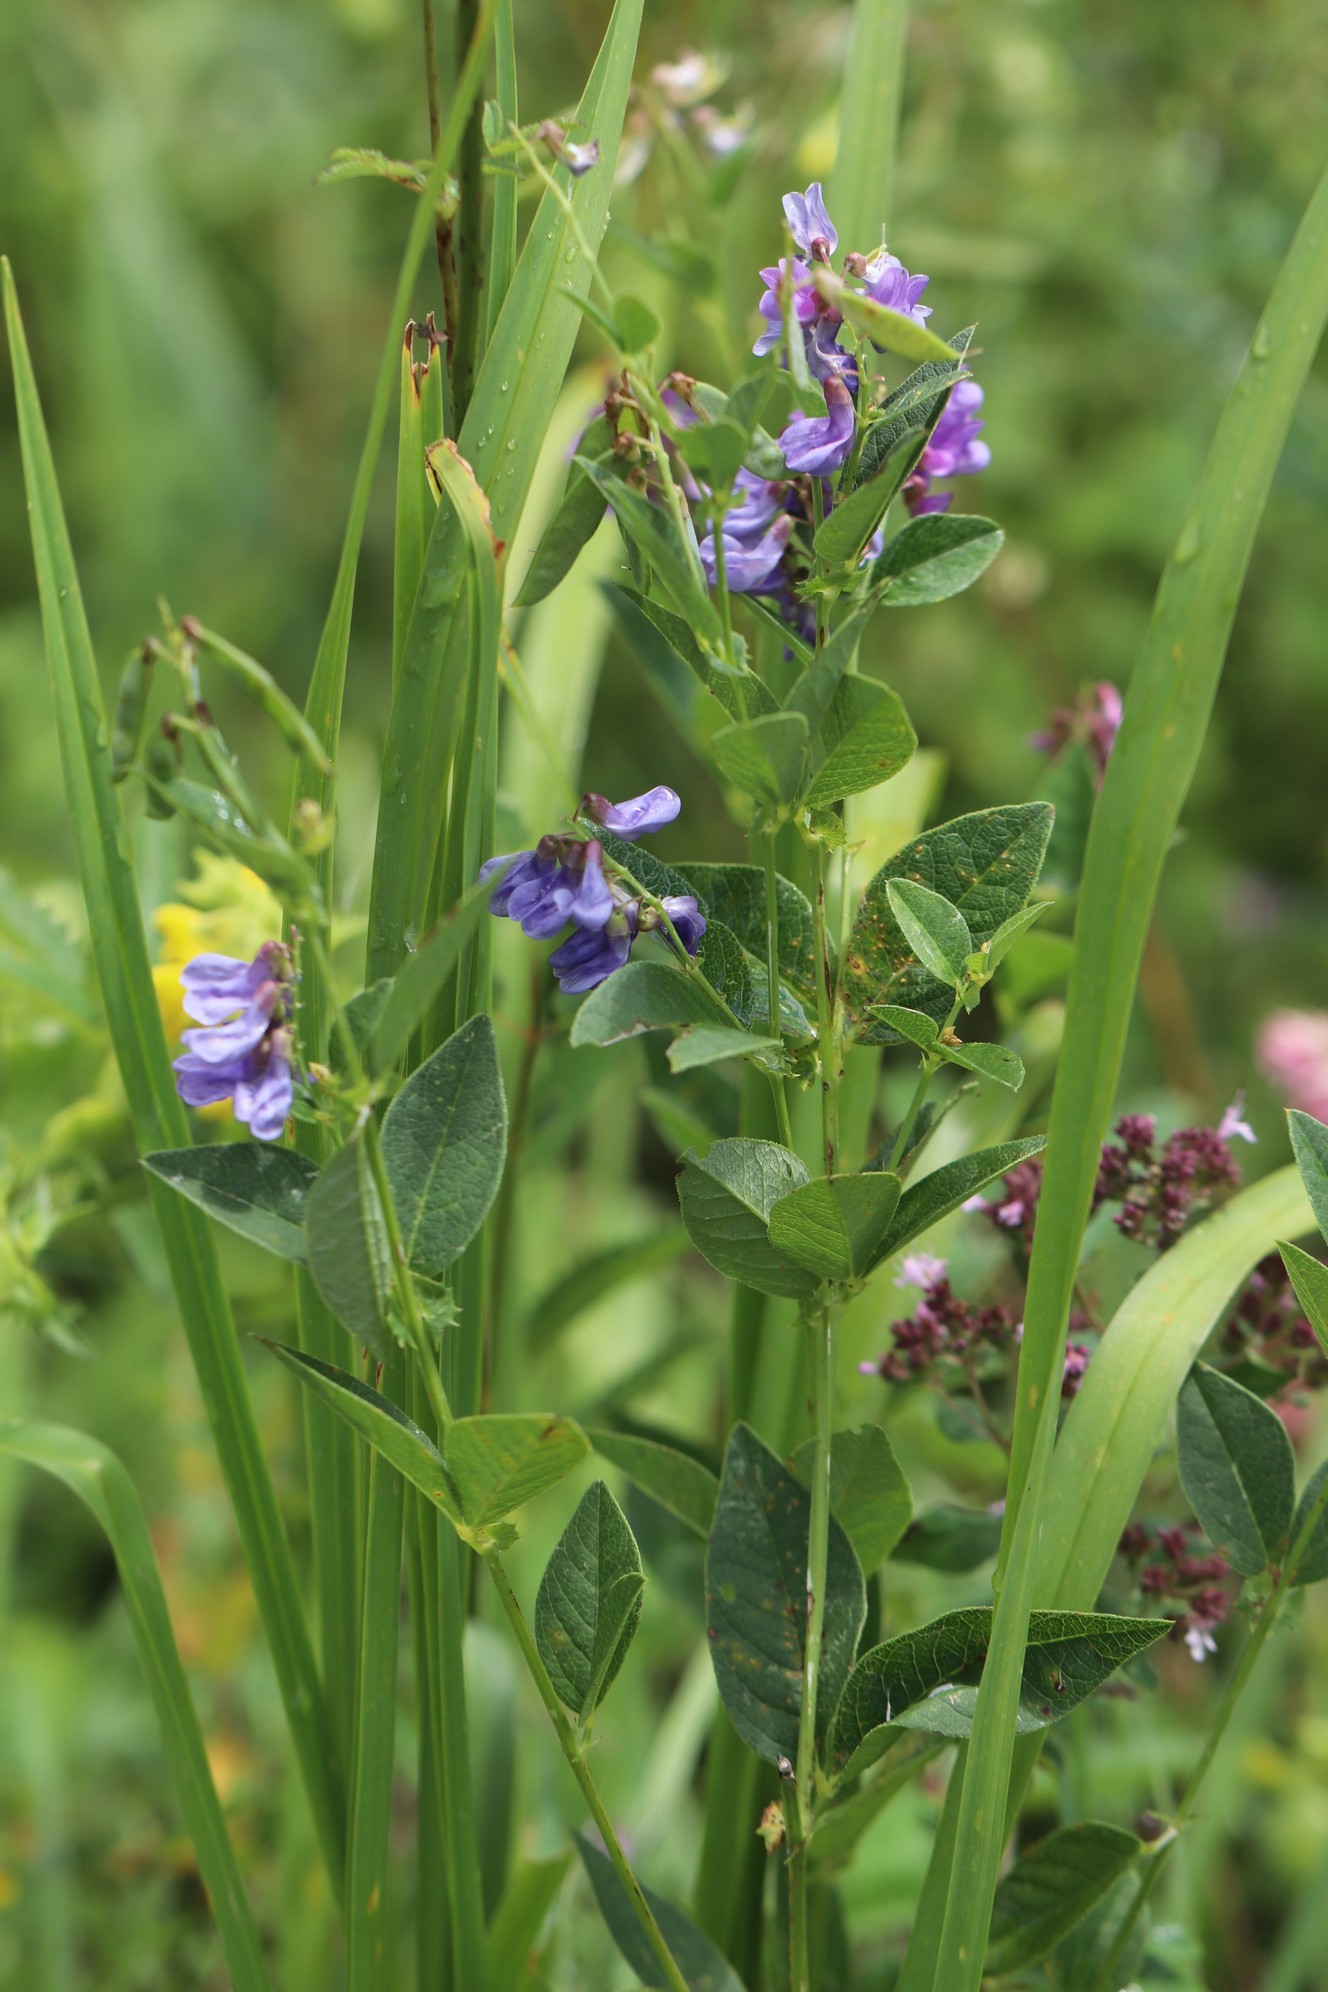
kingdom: Plantae
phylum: Tracheophyta
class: Magnoliopsida
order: Fabales
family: Fabaceae
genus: Vicia
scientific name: Vicia unijuga
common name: Two-leaf vetch
